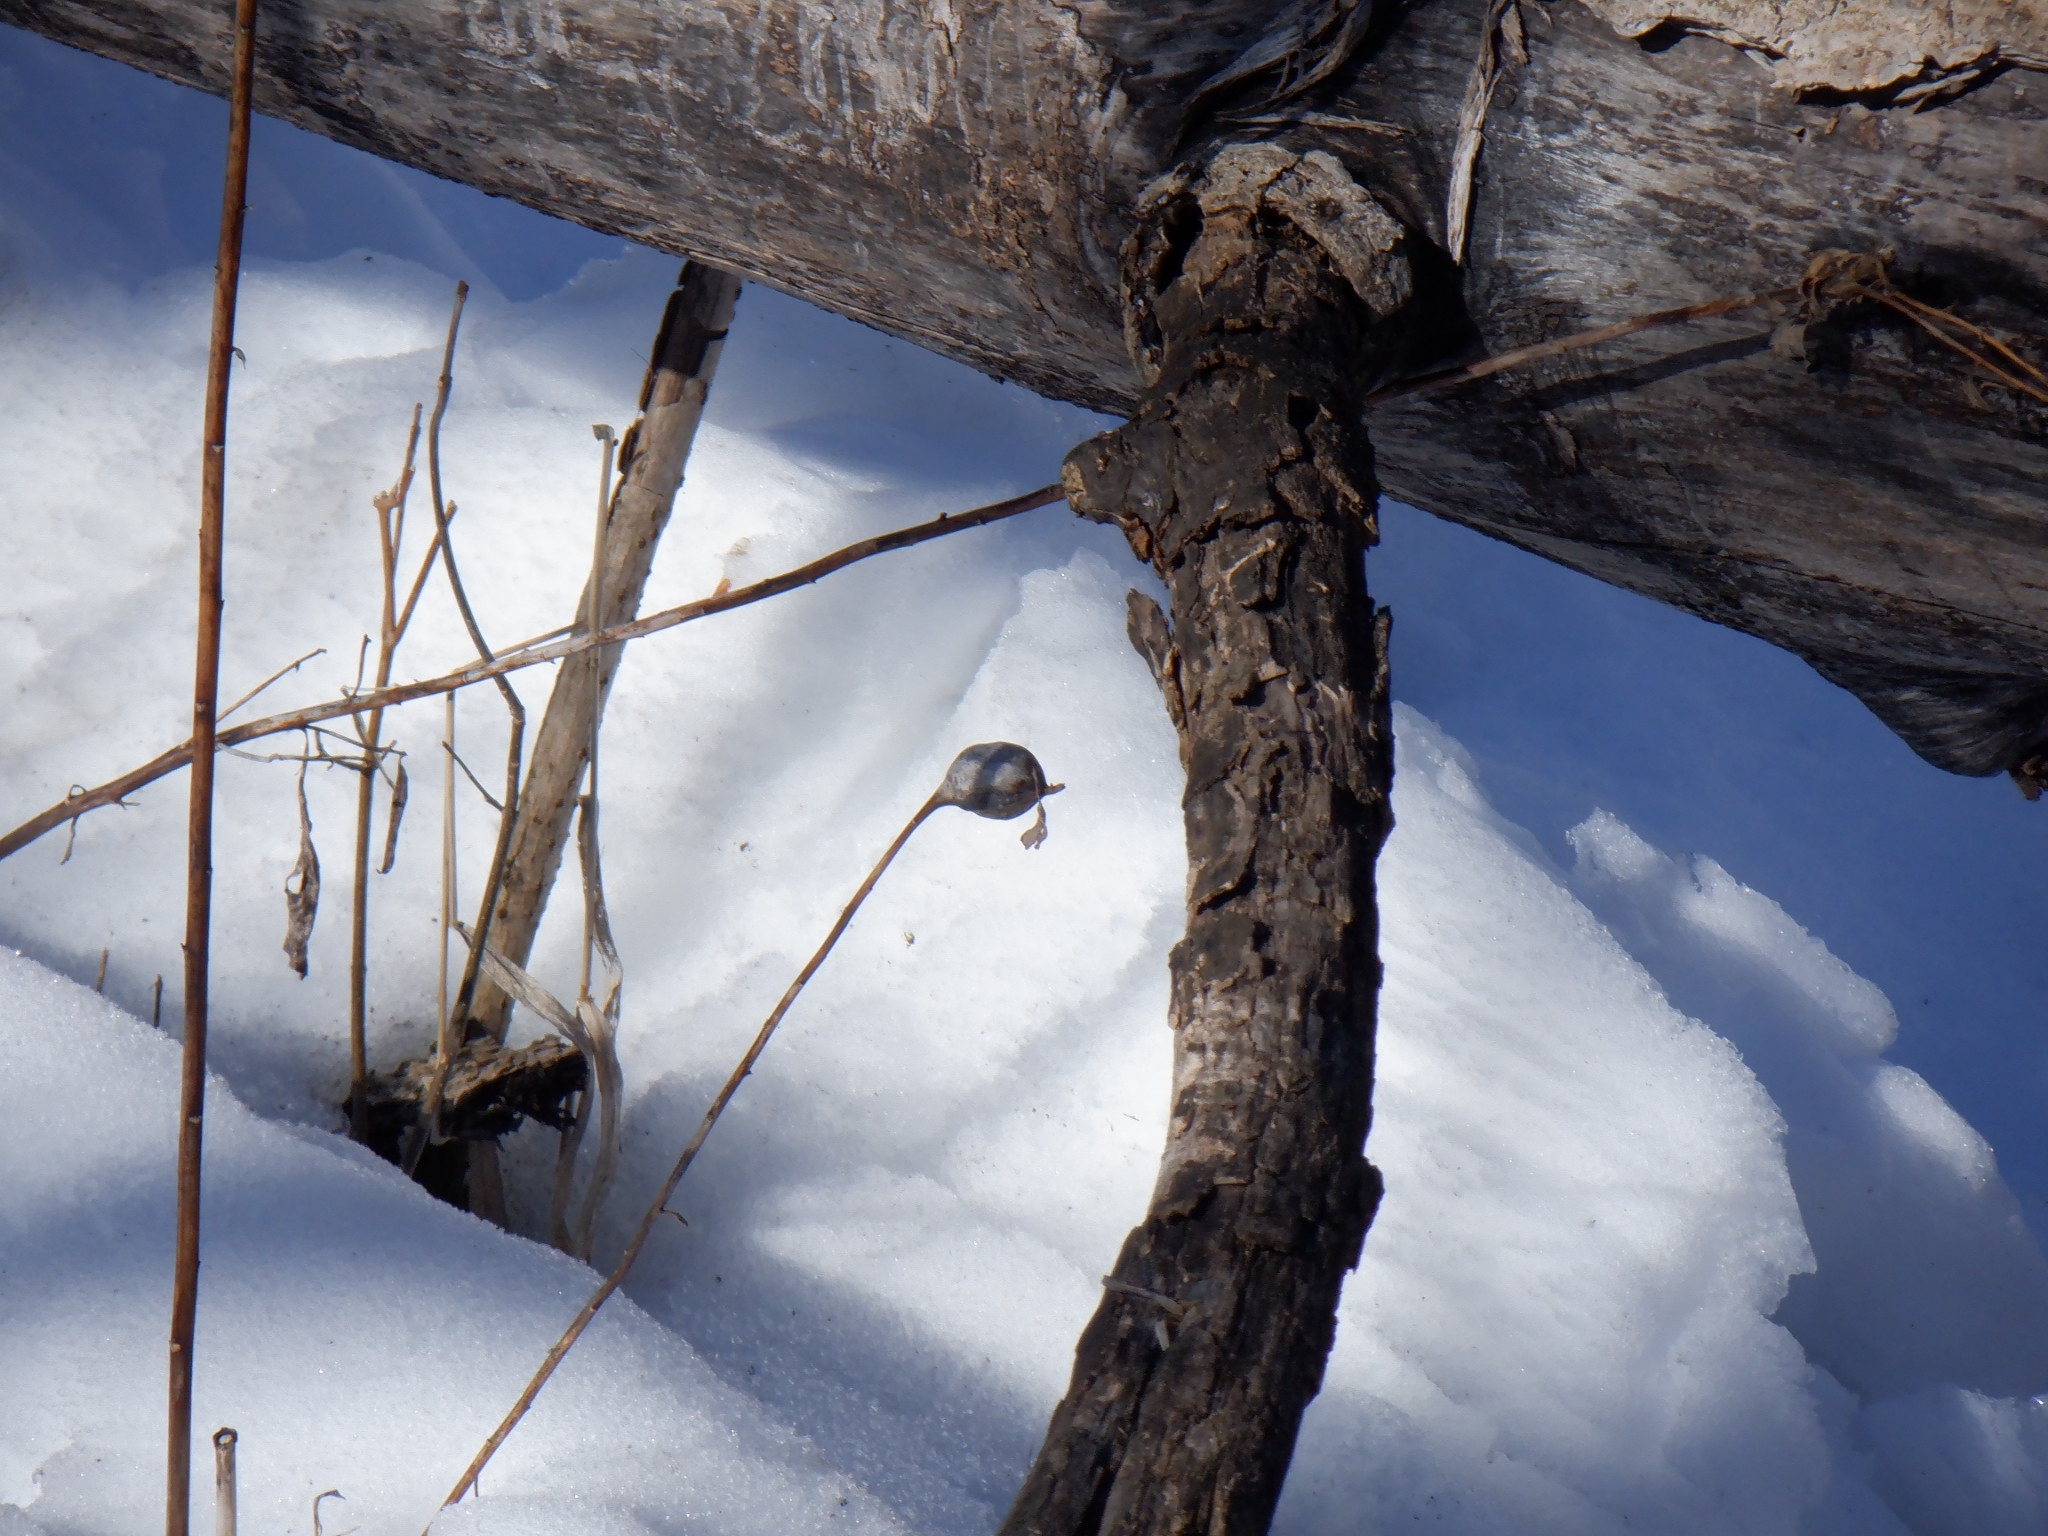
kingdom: Animalia
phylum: Arthropoda
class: Insecta
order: Diptera
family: Tephritidae
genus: Eurosta
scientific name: Eurosta solidaginis
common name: Goldenrod gall fly
